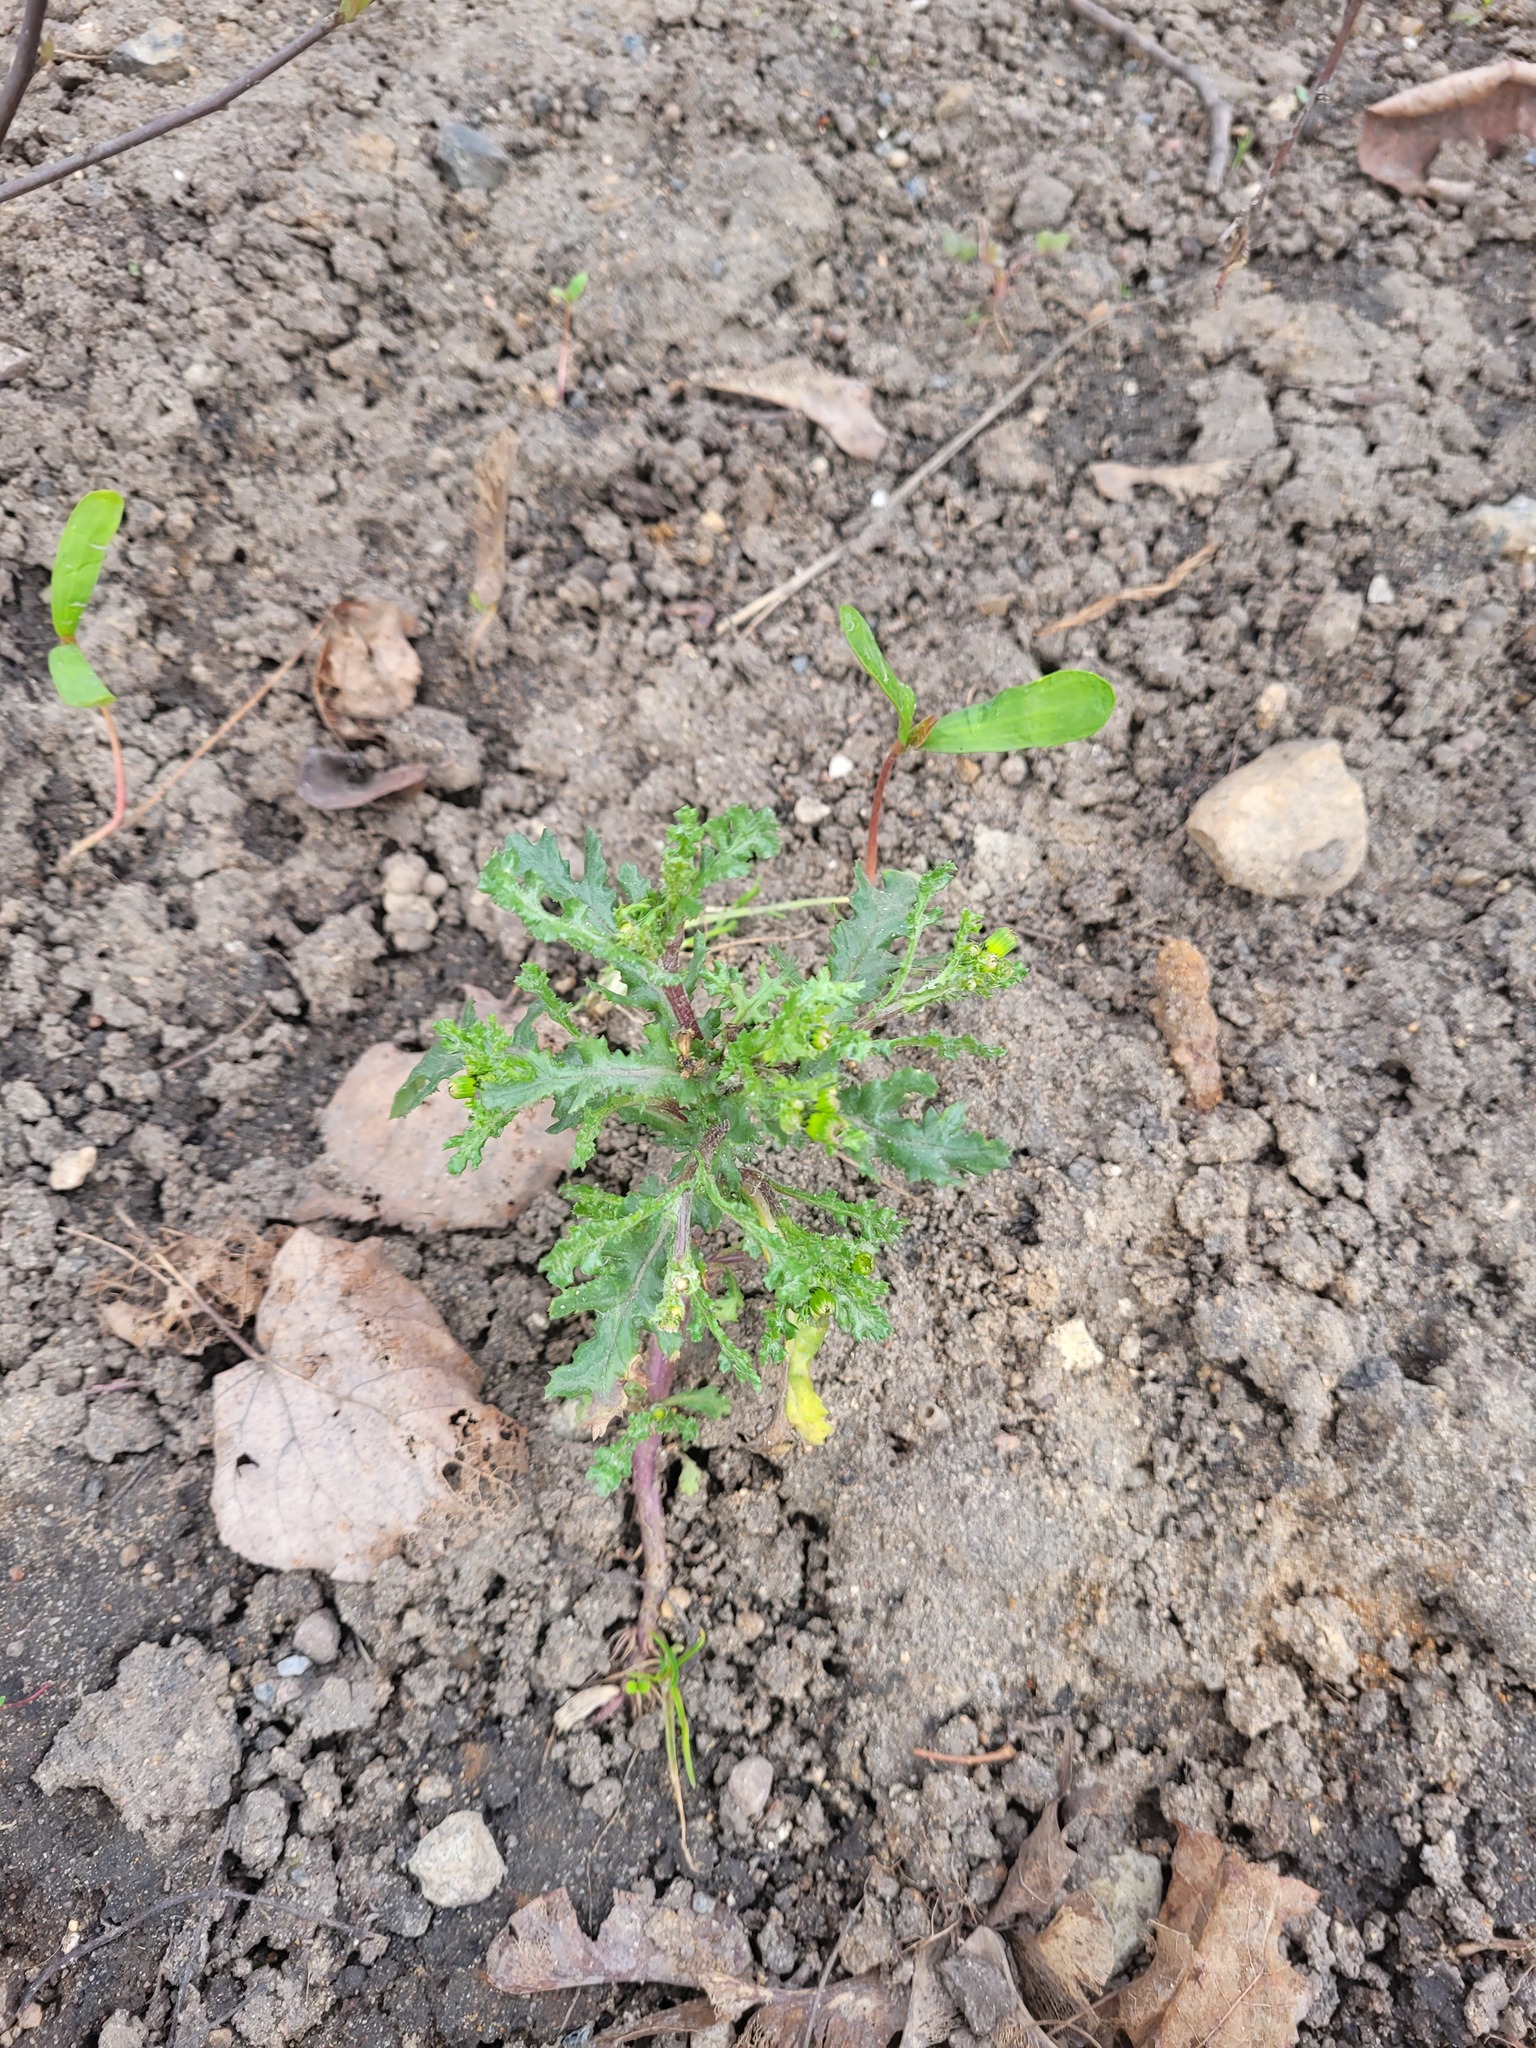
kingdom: Plantae
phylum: Tracheophyta
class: Magnoliopsida
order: Asterales
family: Asteraceae
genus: Senecio
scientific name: Senecio vulgaris
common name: Old-man-in-the-spring
